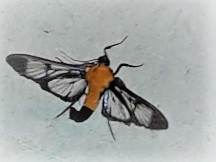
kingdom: Animalia
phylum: Arthropoda
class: Insecta
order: Lepidoptera
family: Crambidae
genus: Trichaea
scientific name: Trichaea pilicornis
